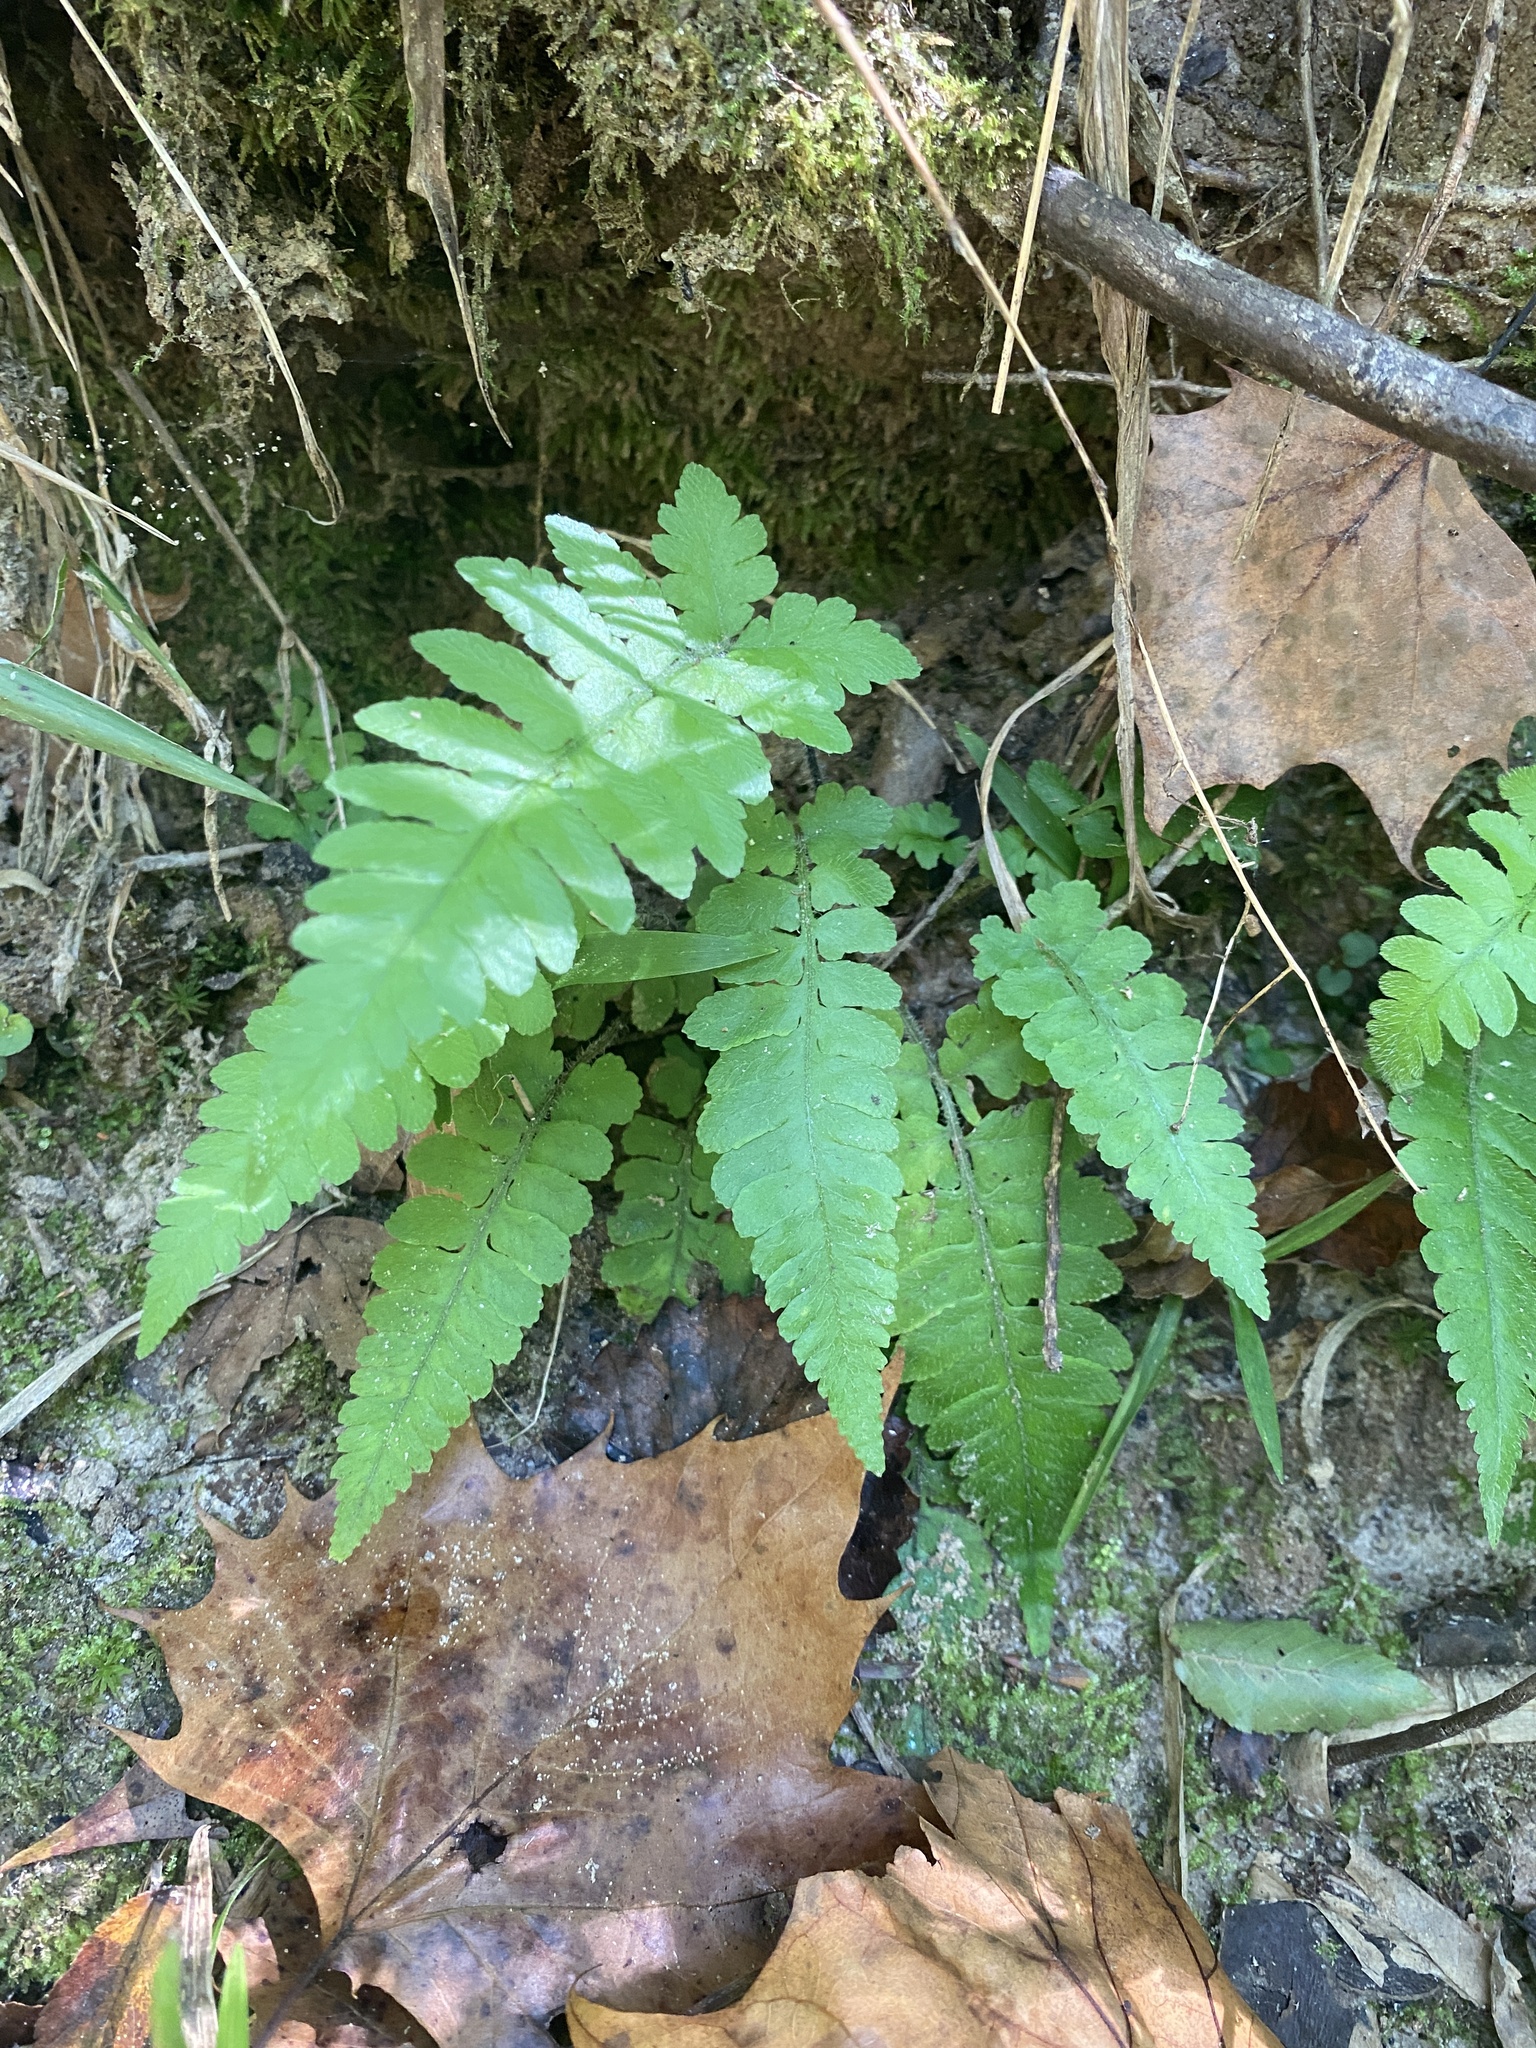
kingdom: Plantae
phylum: Tracheophyta
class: Polypodiopsida
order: Polypodiales
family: Athyriaceae
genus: Deparia
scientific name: Deparia petersenii
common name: Japanese false spleenwort
